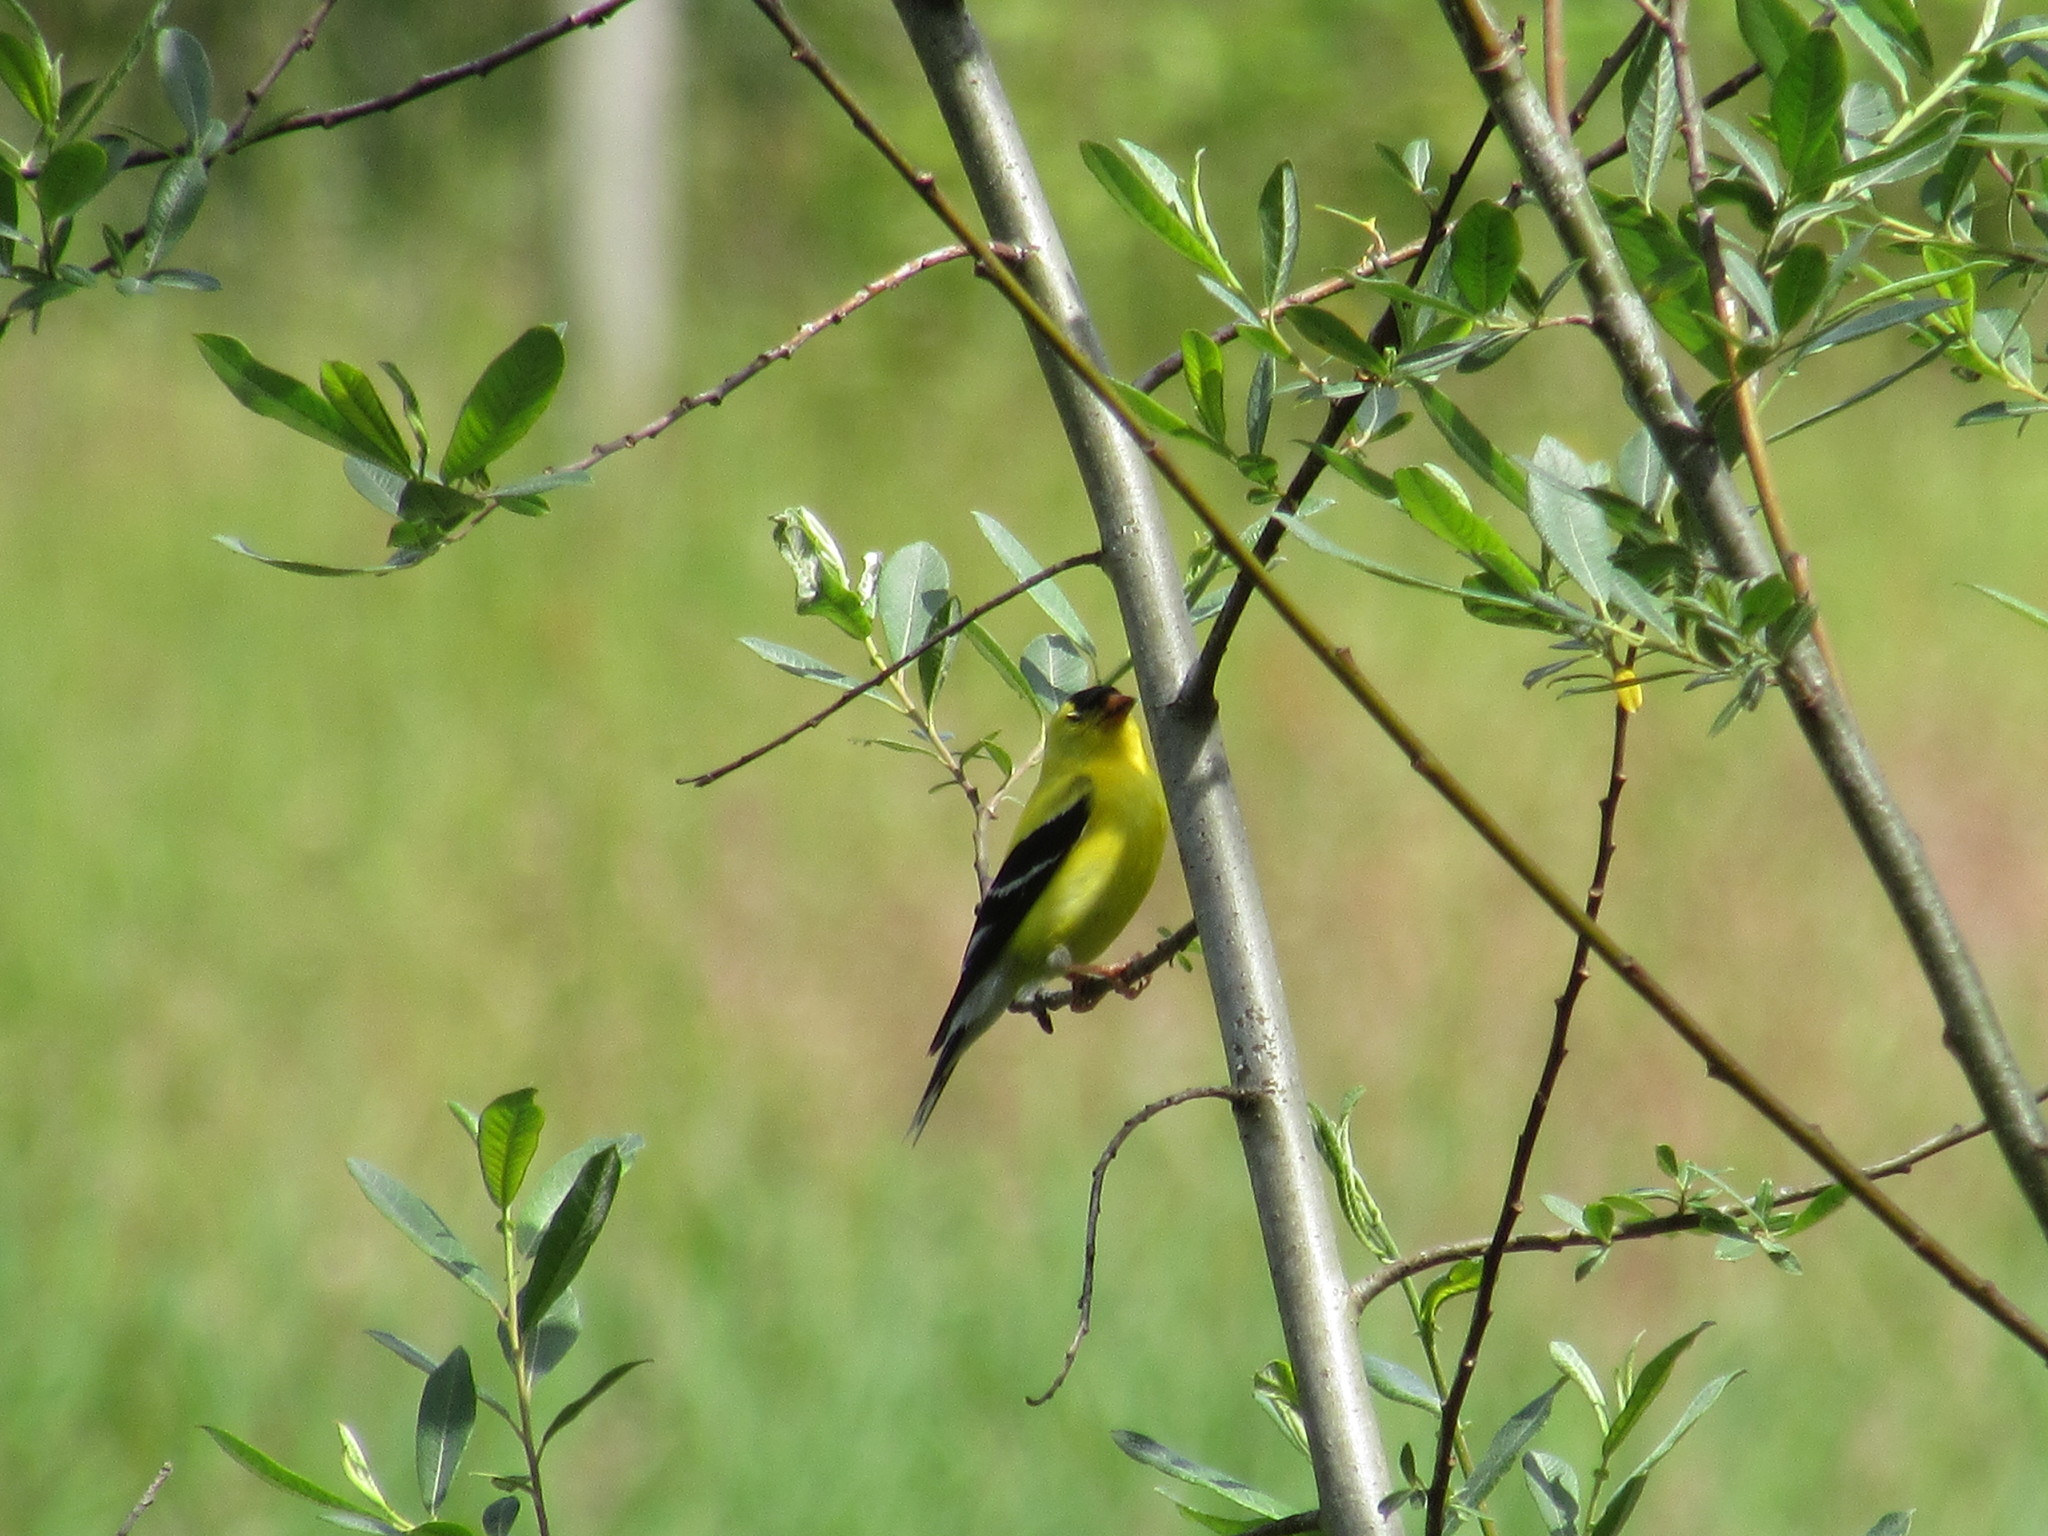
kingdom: Animalia
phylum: Chordata
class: Aves
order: Passeriformes
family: Fringillidae
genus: Spinus
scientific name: Spinus tristis
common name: American goldfinch
